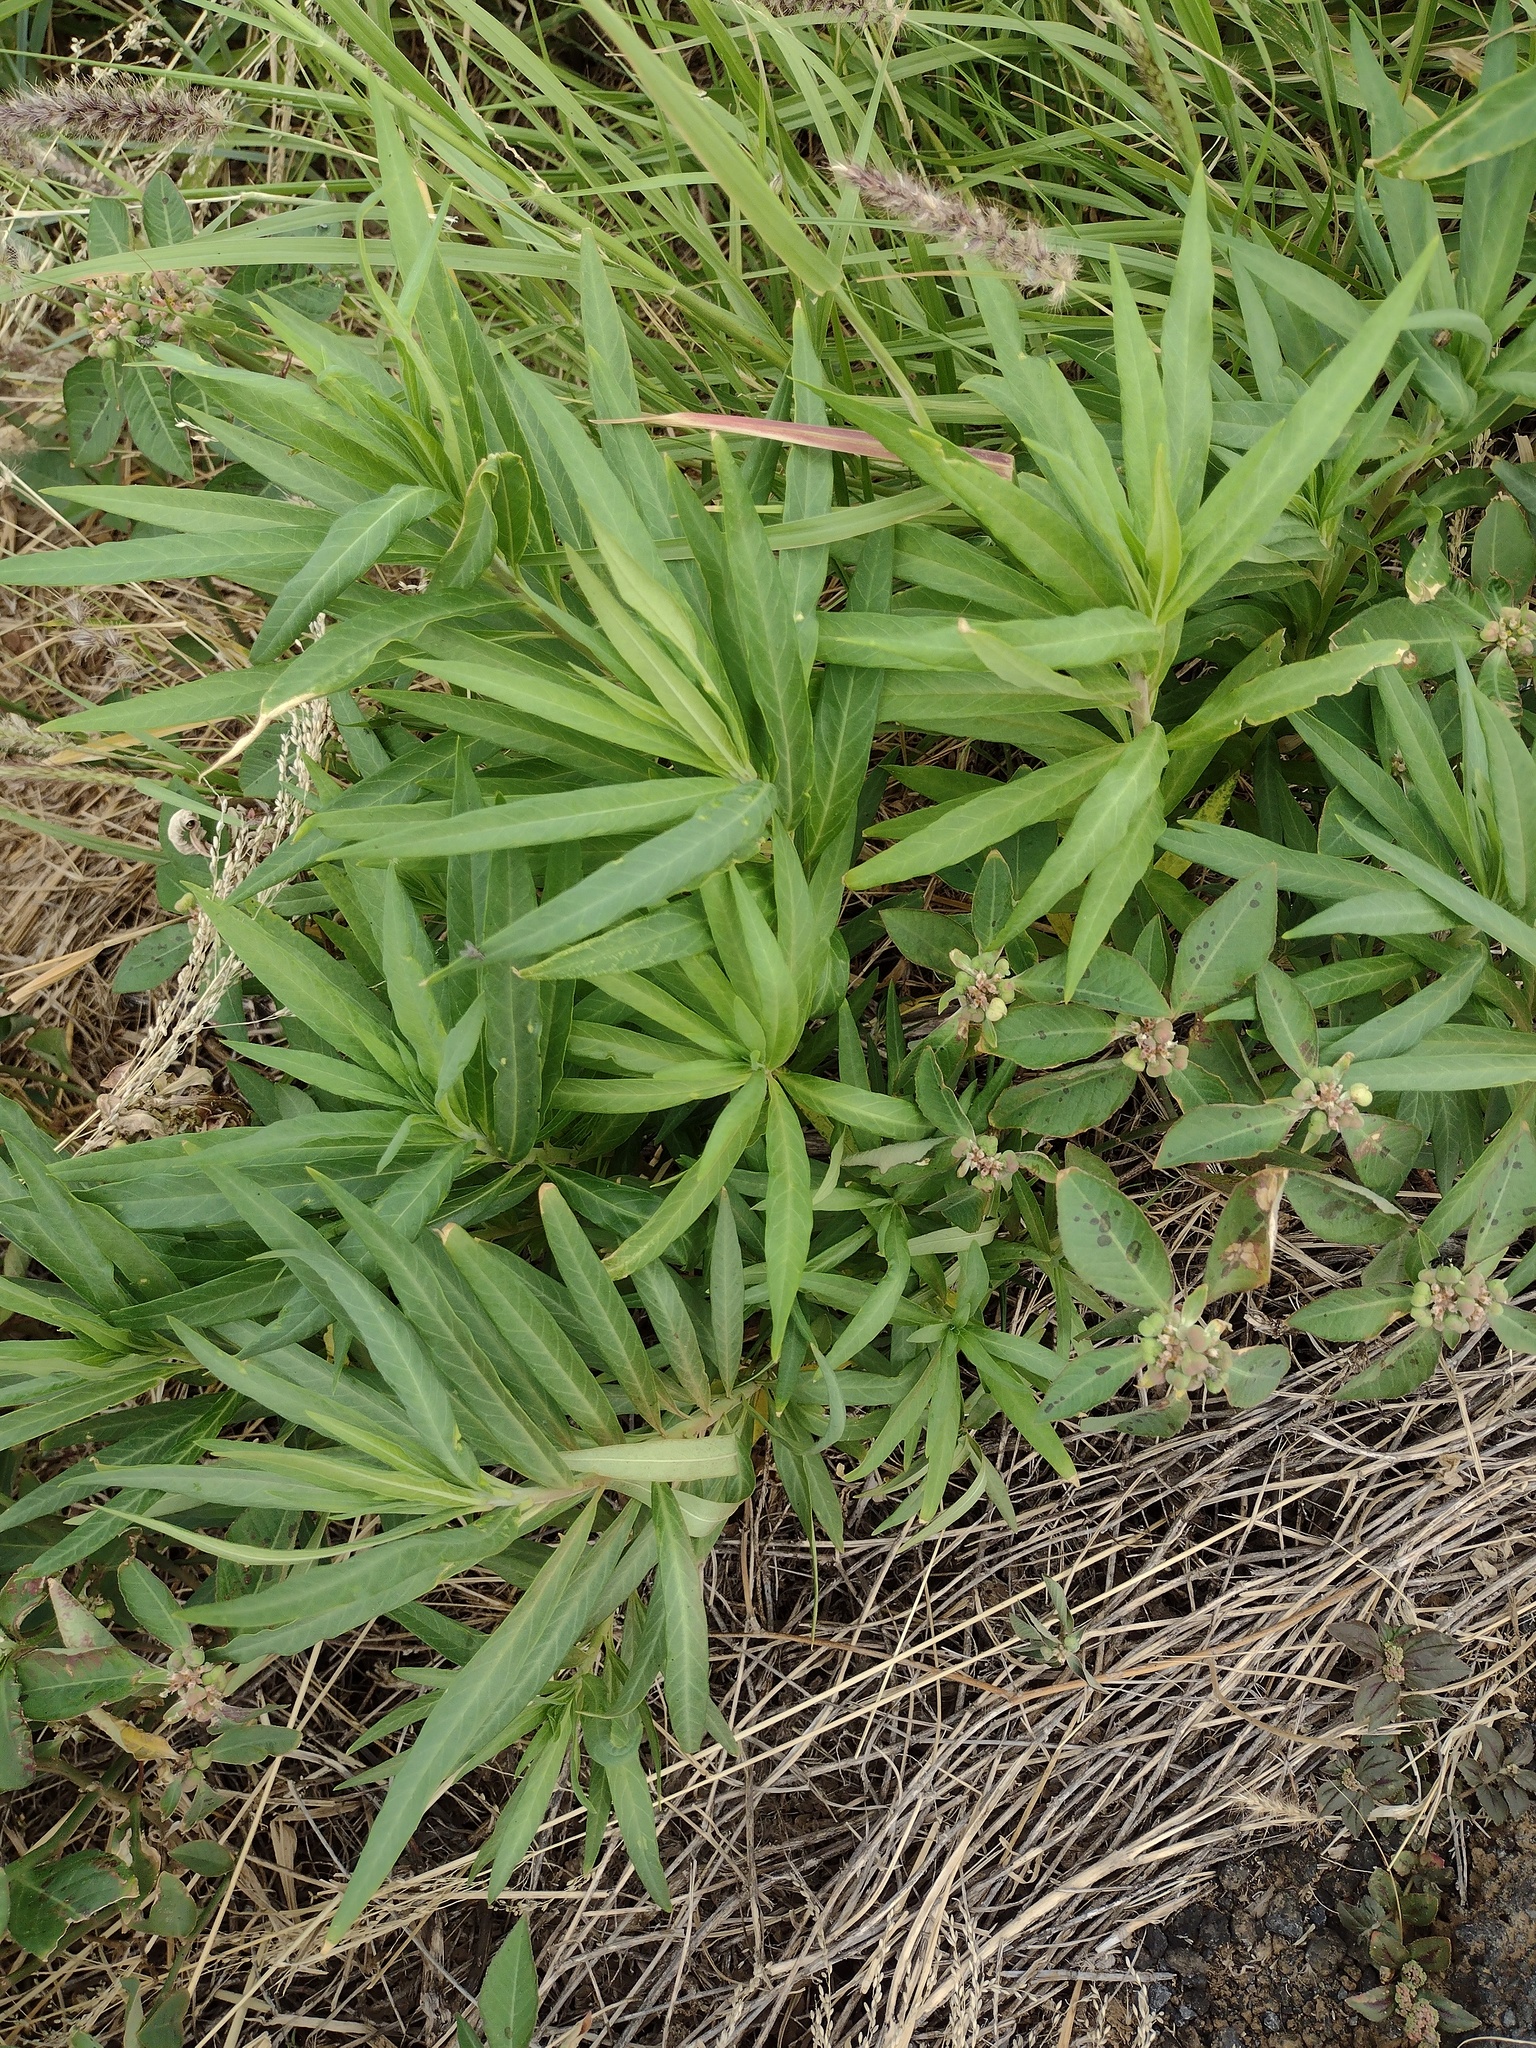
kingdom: Plantae
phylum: Tracheophyta
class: Magnoliopsida
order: Malpighiales
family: Euphorbiaceae
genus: Euphorbia
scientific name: Euphorbia heterophylla
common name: Mexican fireplant
